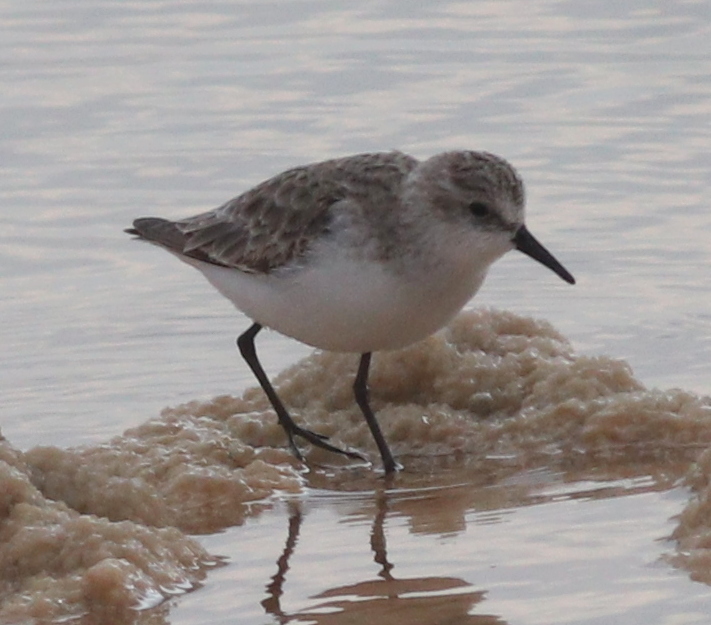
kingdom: Animalia
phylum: Chordata
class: Aves
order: Charadriiformes
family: Scolopacidae
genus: Calidris
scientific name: Calidris minuta
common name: Little stint
